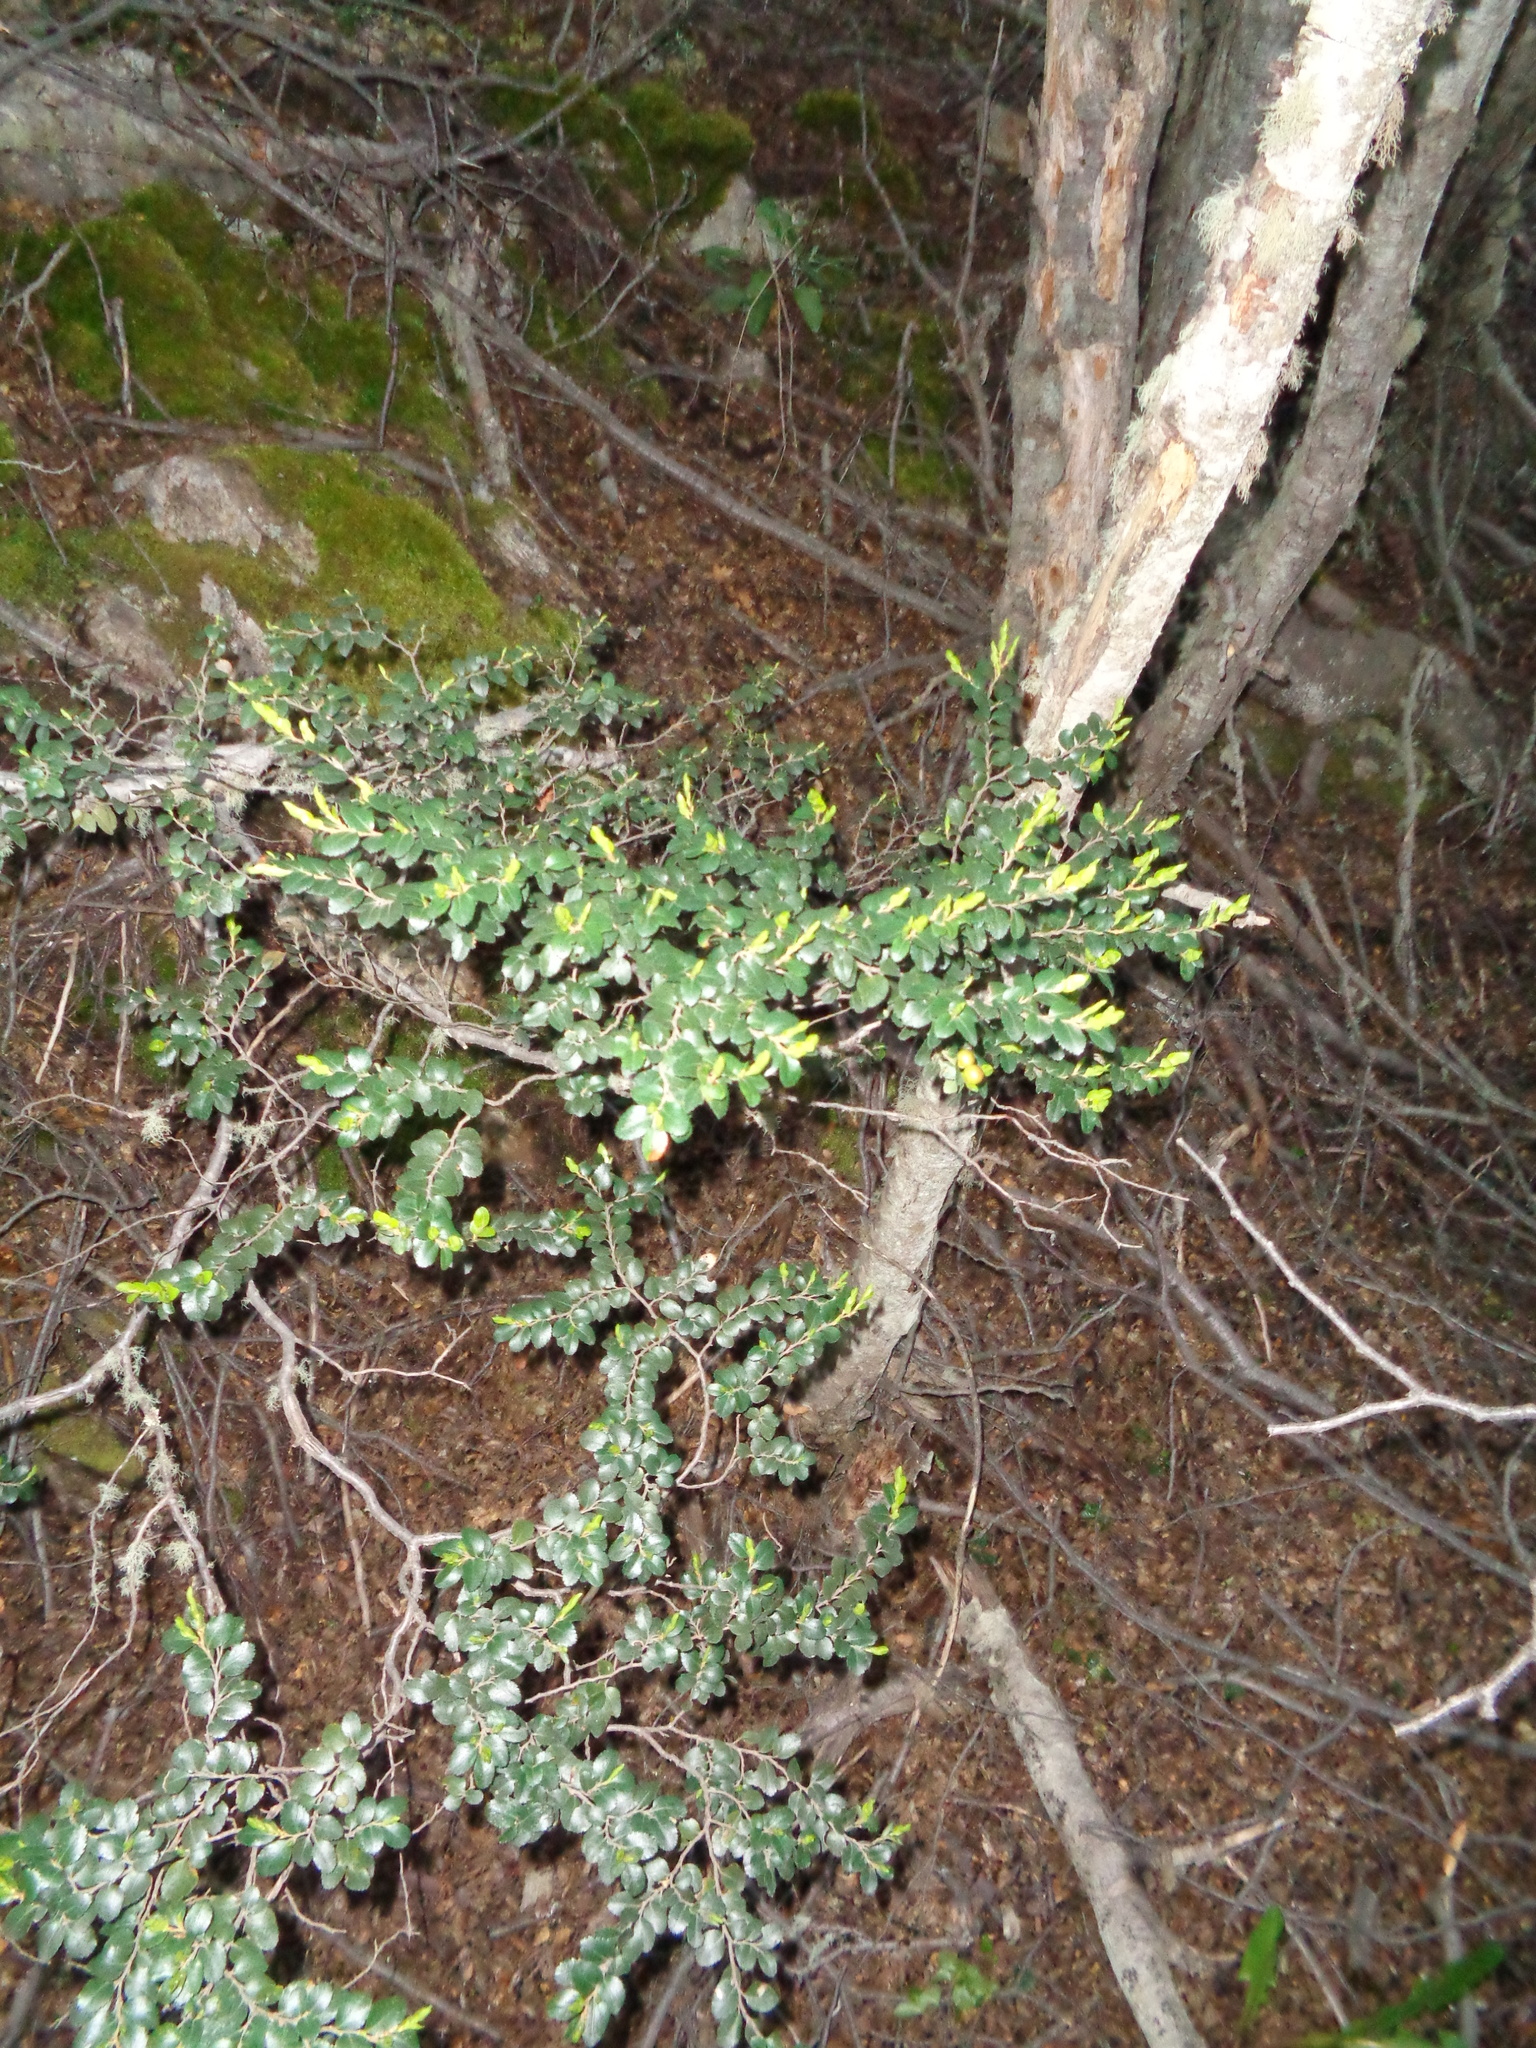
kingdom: Plantae
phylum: Tracheophyta
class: Magnoliopsida
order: Fagales
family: Nothofagaceae
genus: Nothofagus
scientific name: Nothofagus betuloides
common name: Magellan's beech
